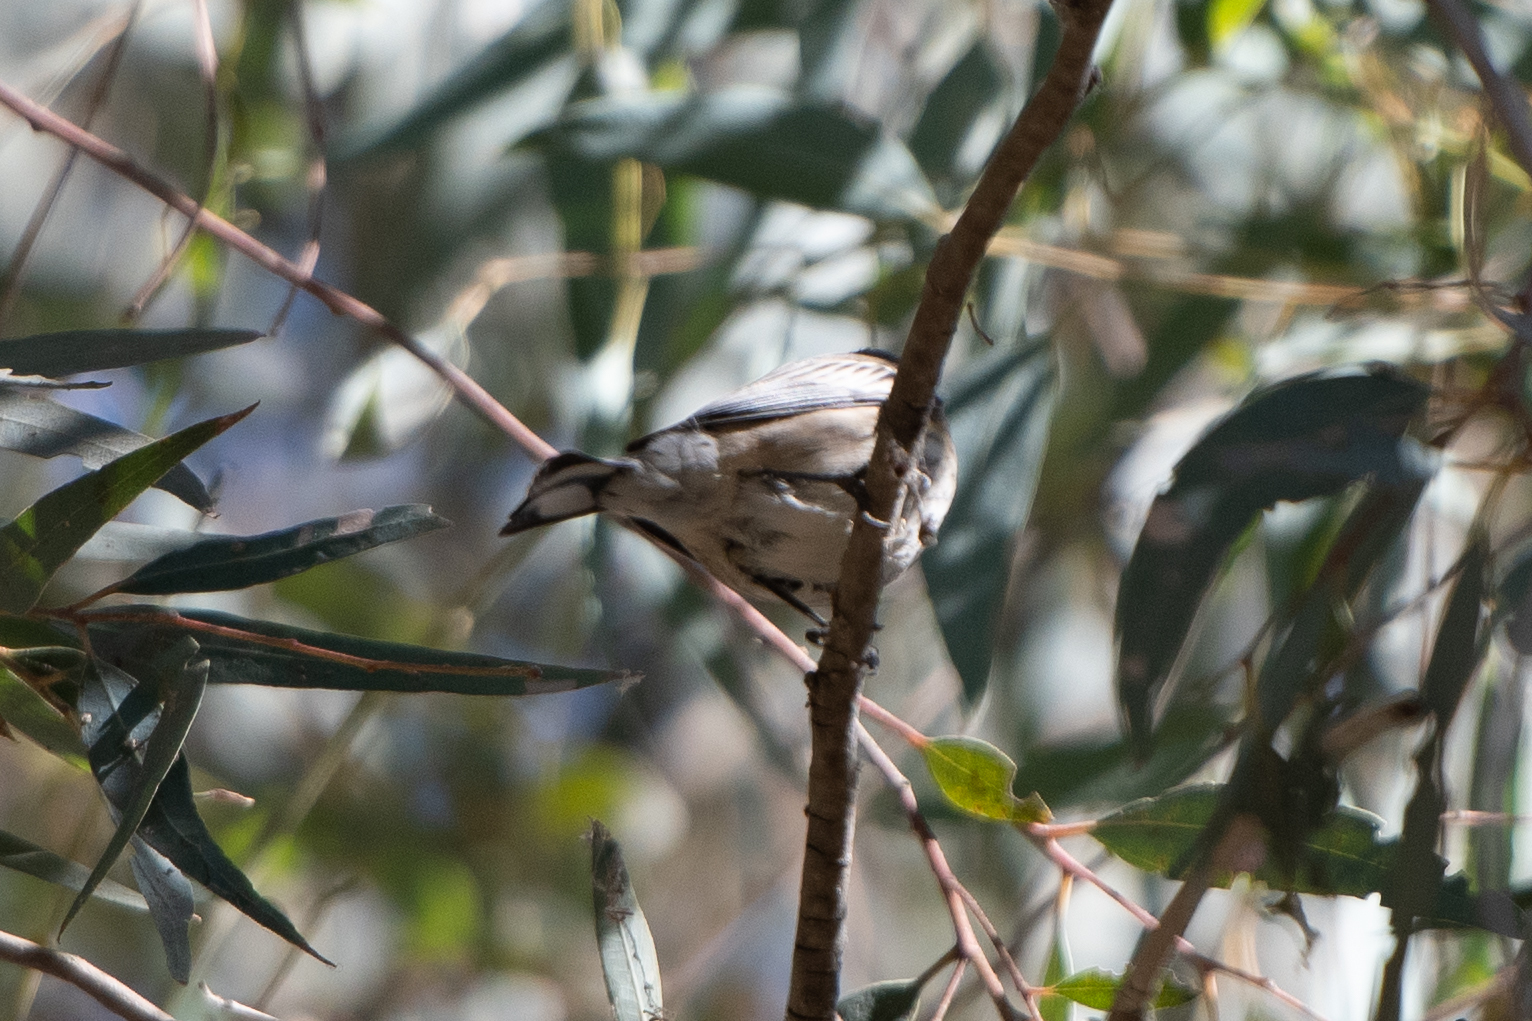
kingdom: Animalia
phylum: Chordata
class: Aves
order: Passeriformes
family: Parulidae
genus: Setophaga
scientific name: Setophaga coronata
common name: Myrtle warbler
